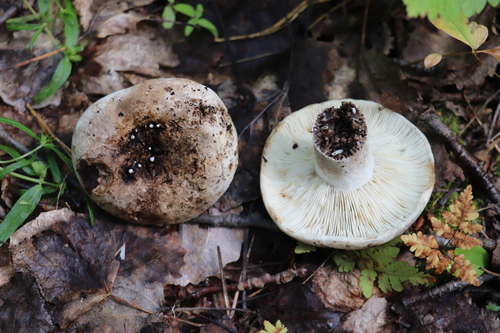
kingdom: Fungi
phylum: Basidiomycota
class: Agaricomycetes
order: Russulales
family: Russulaceae
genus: Russula
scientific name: Russula albonigra
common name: Menthol brittlegill
